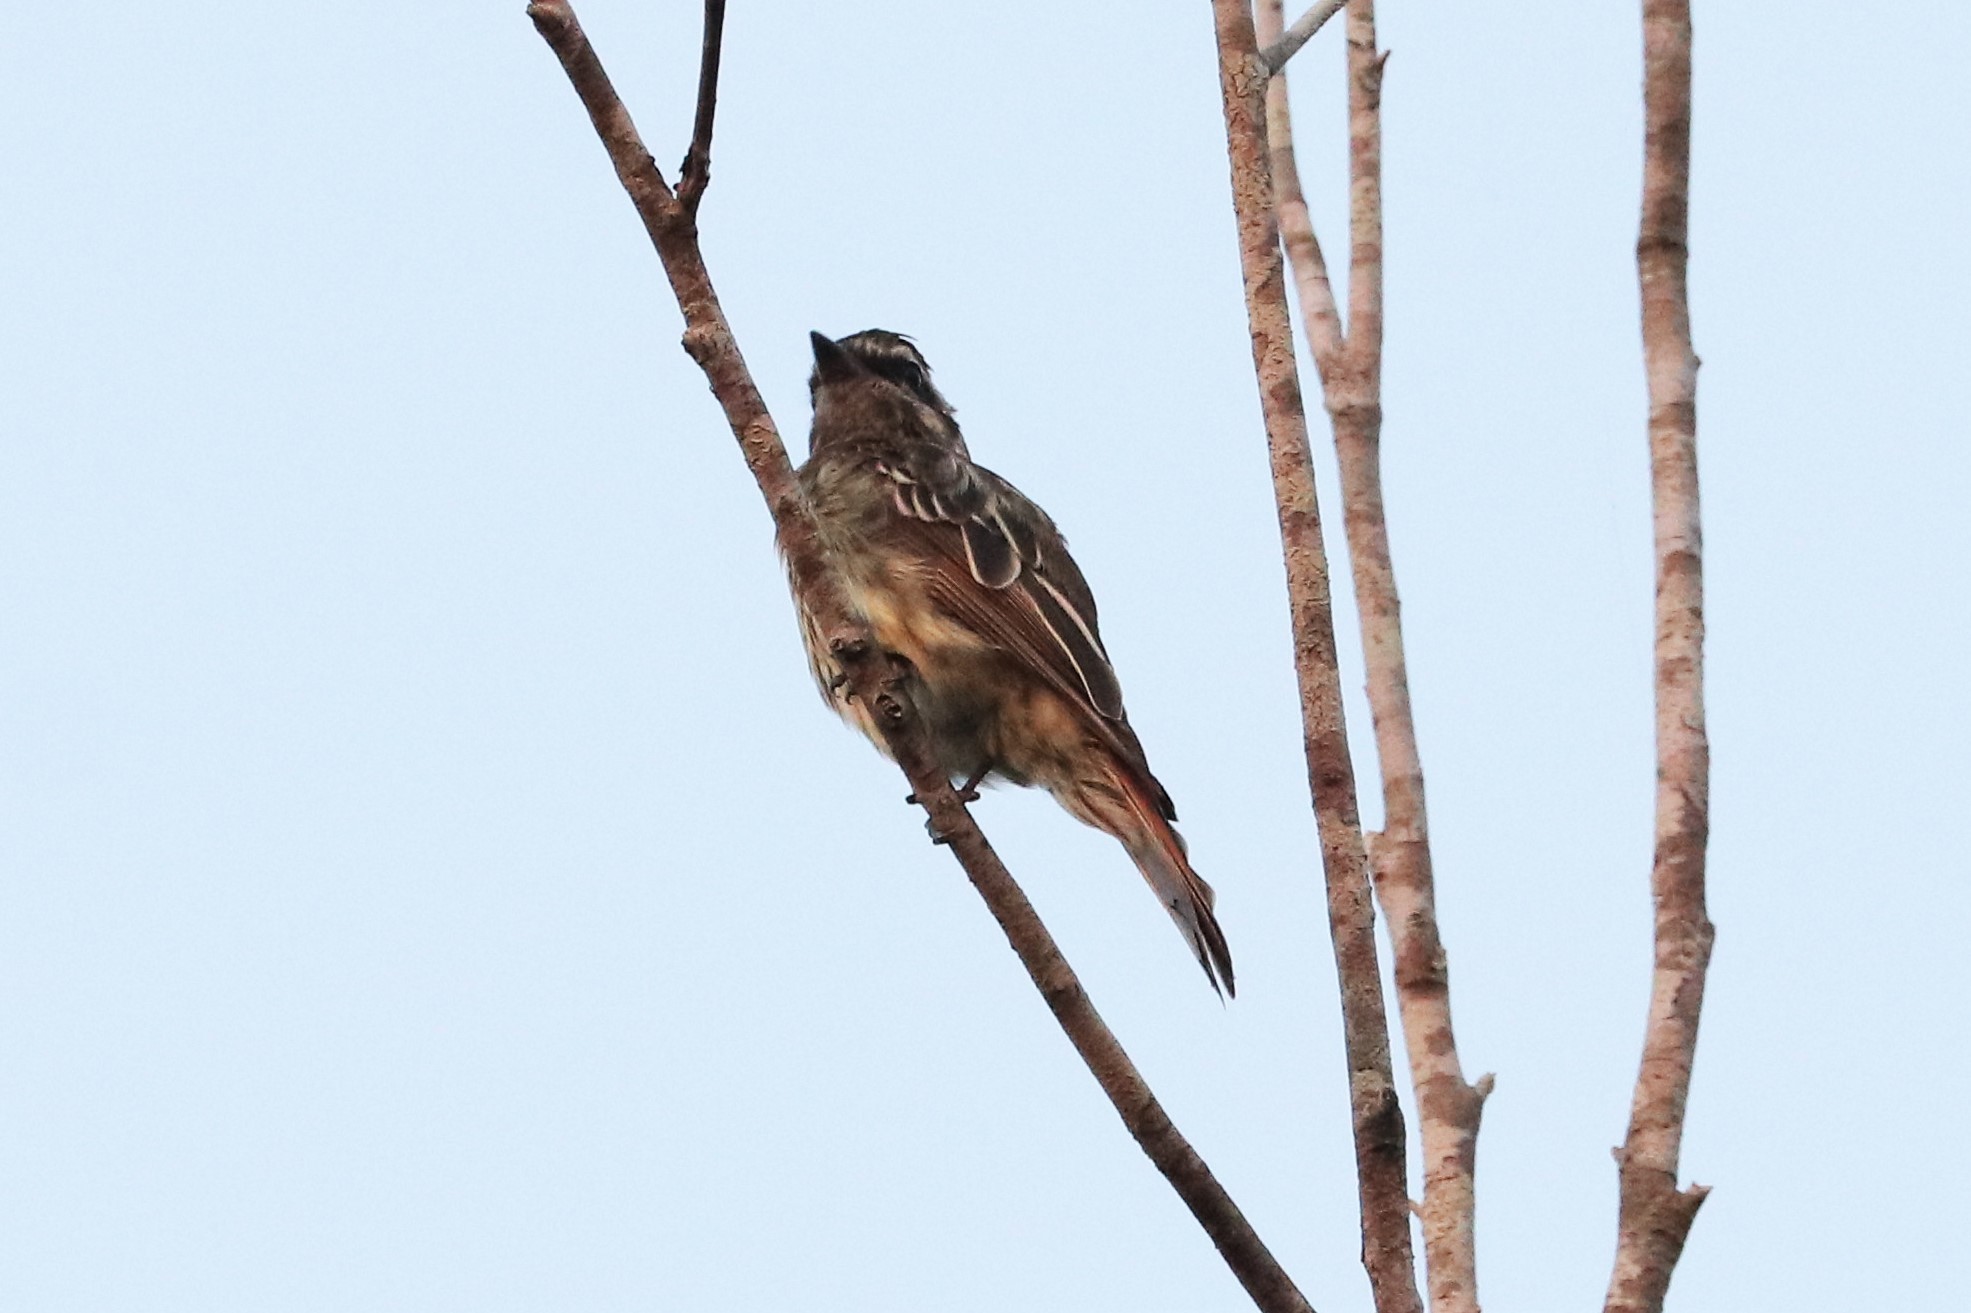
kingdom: Animalia
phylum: Chordata
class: Aves
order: Passeriformes
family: Tyrannidae
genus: Empidonomus
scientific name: Empidonomus varius
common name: Variegated flycatcher
